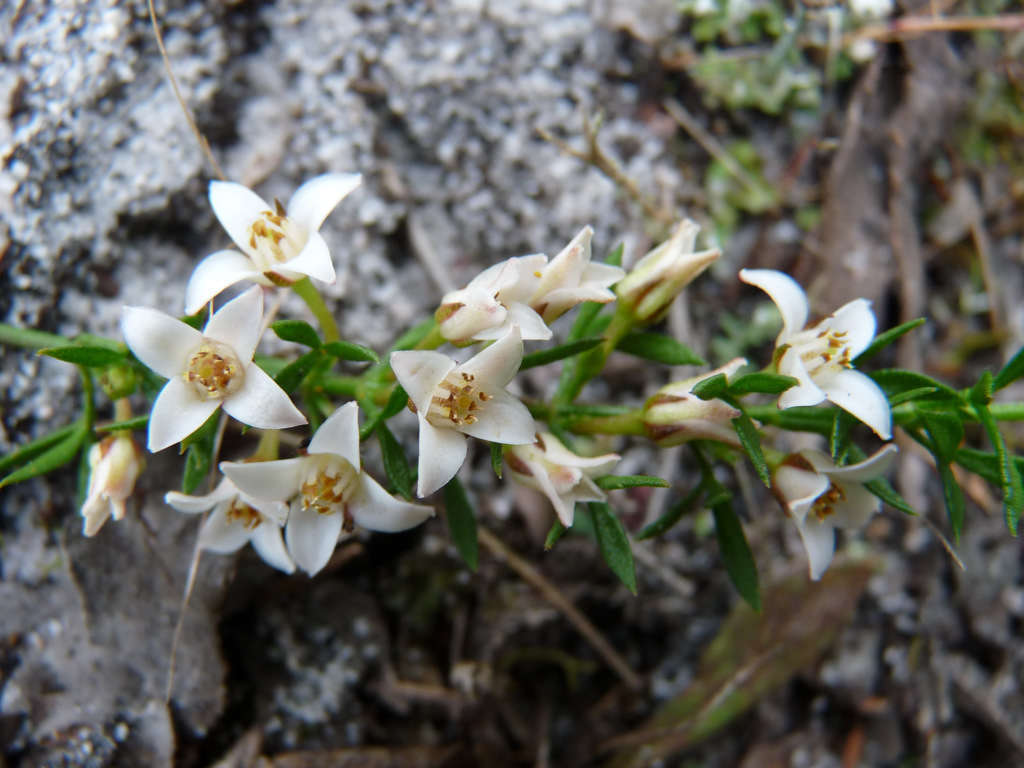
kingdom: Plantae
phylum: Tracheophyta
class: Magnoliopsida
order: Sapindales
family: Rutaceae
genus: Cyanothamnus
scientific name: Cyanothamnus nanus
